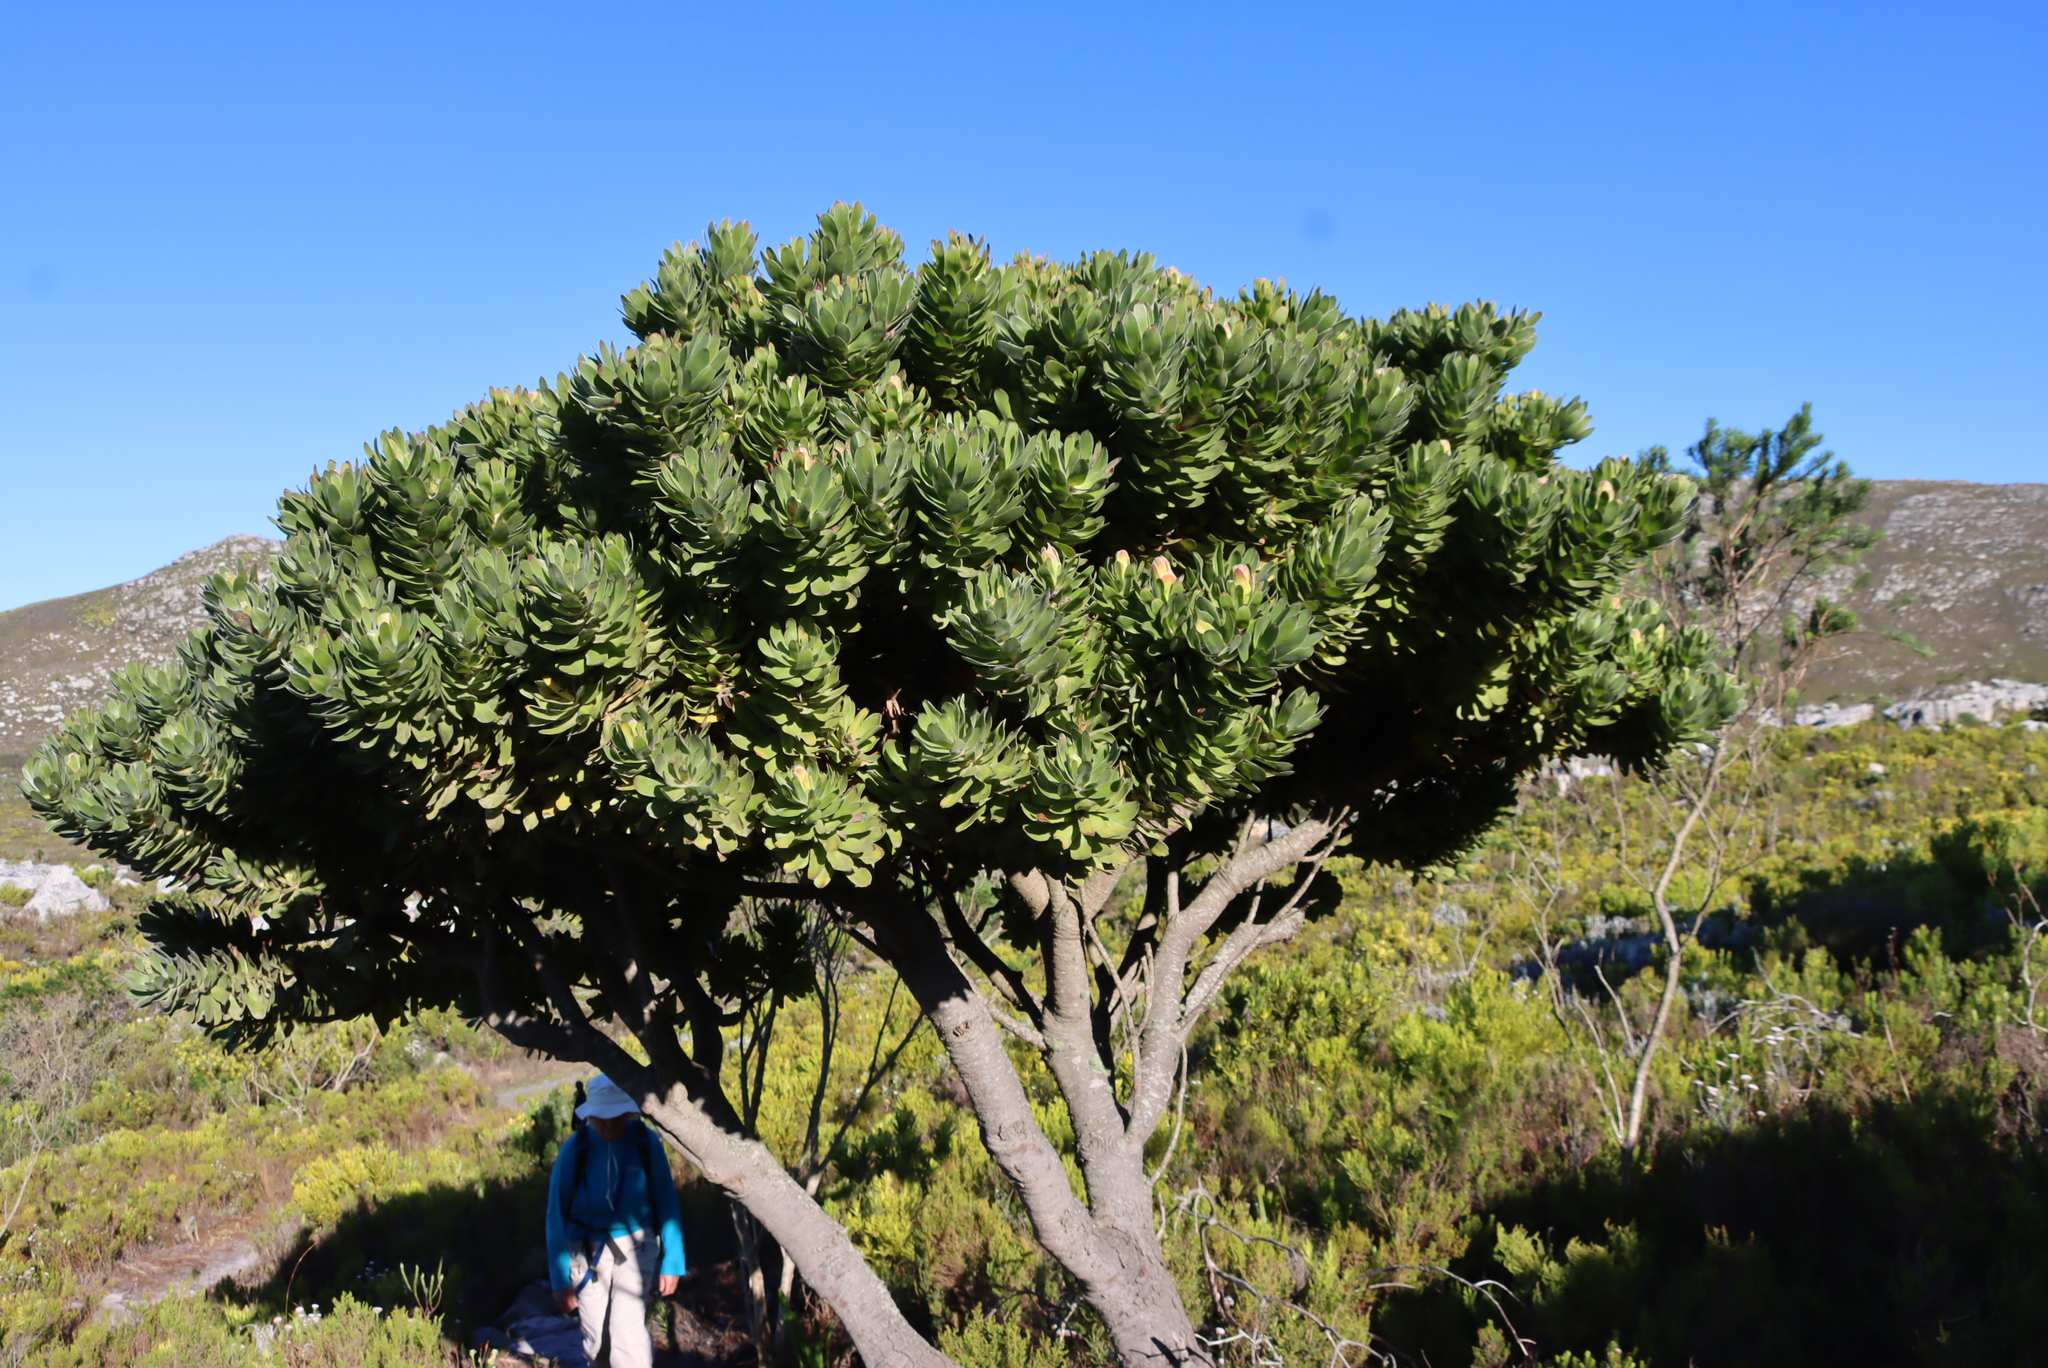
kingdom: Plantae
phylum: Tracheophyta
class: Magnoliopsida
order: Proteales
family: Proteaceae
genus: Mimetes
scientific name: Mimetes fimbriifolius
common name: Fringed bottlebrush
